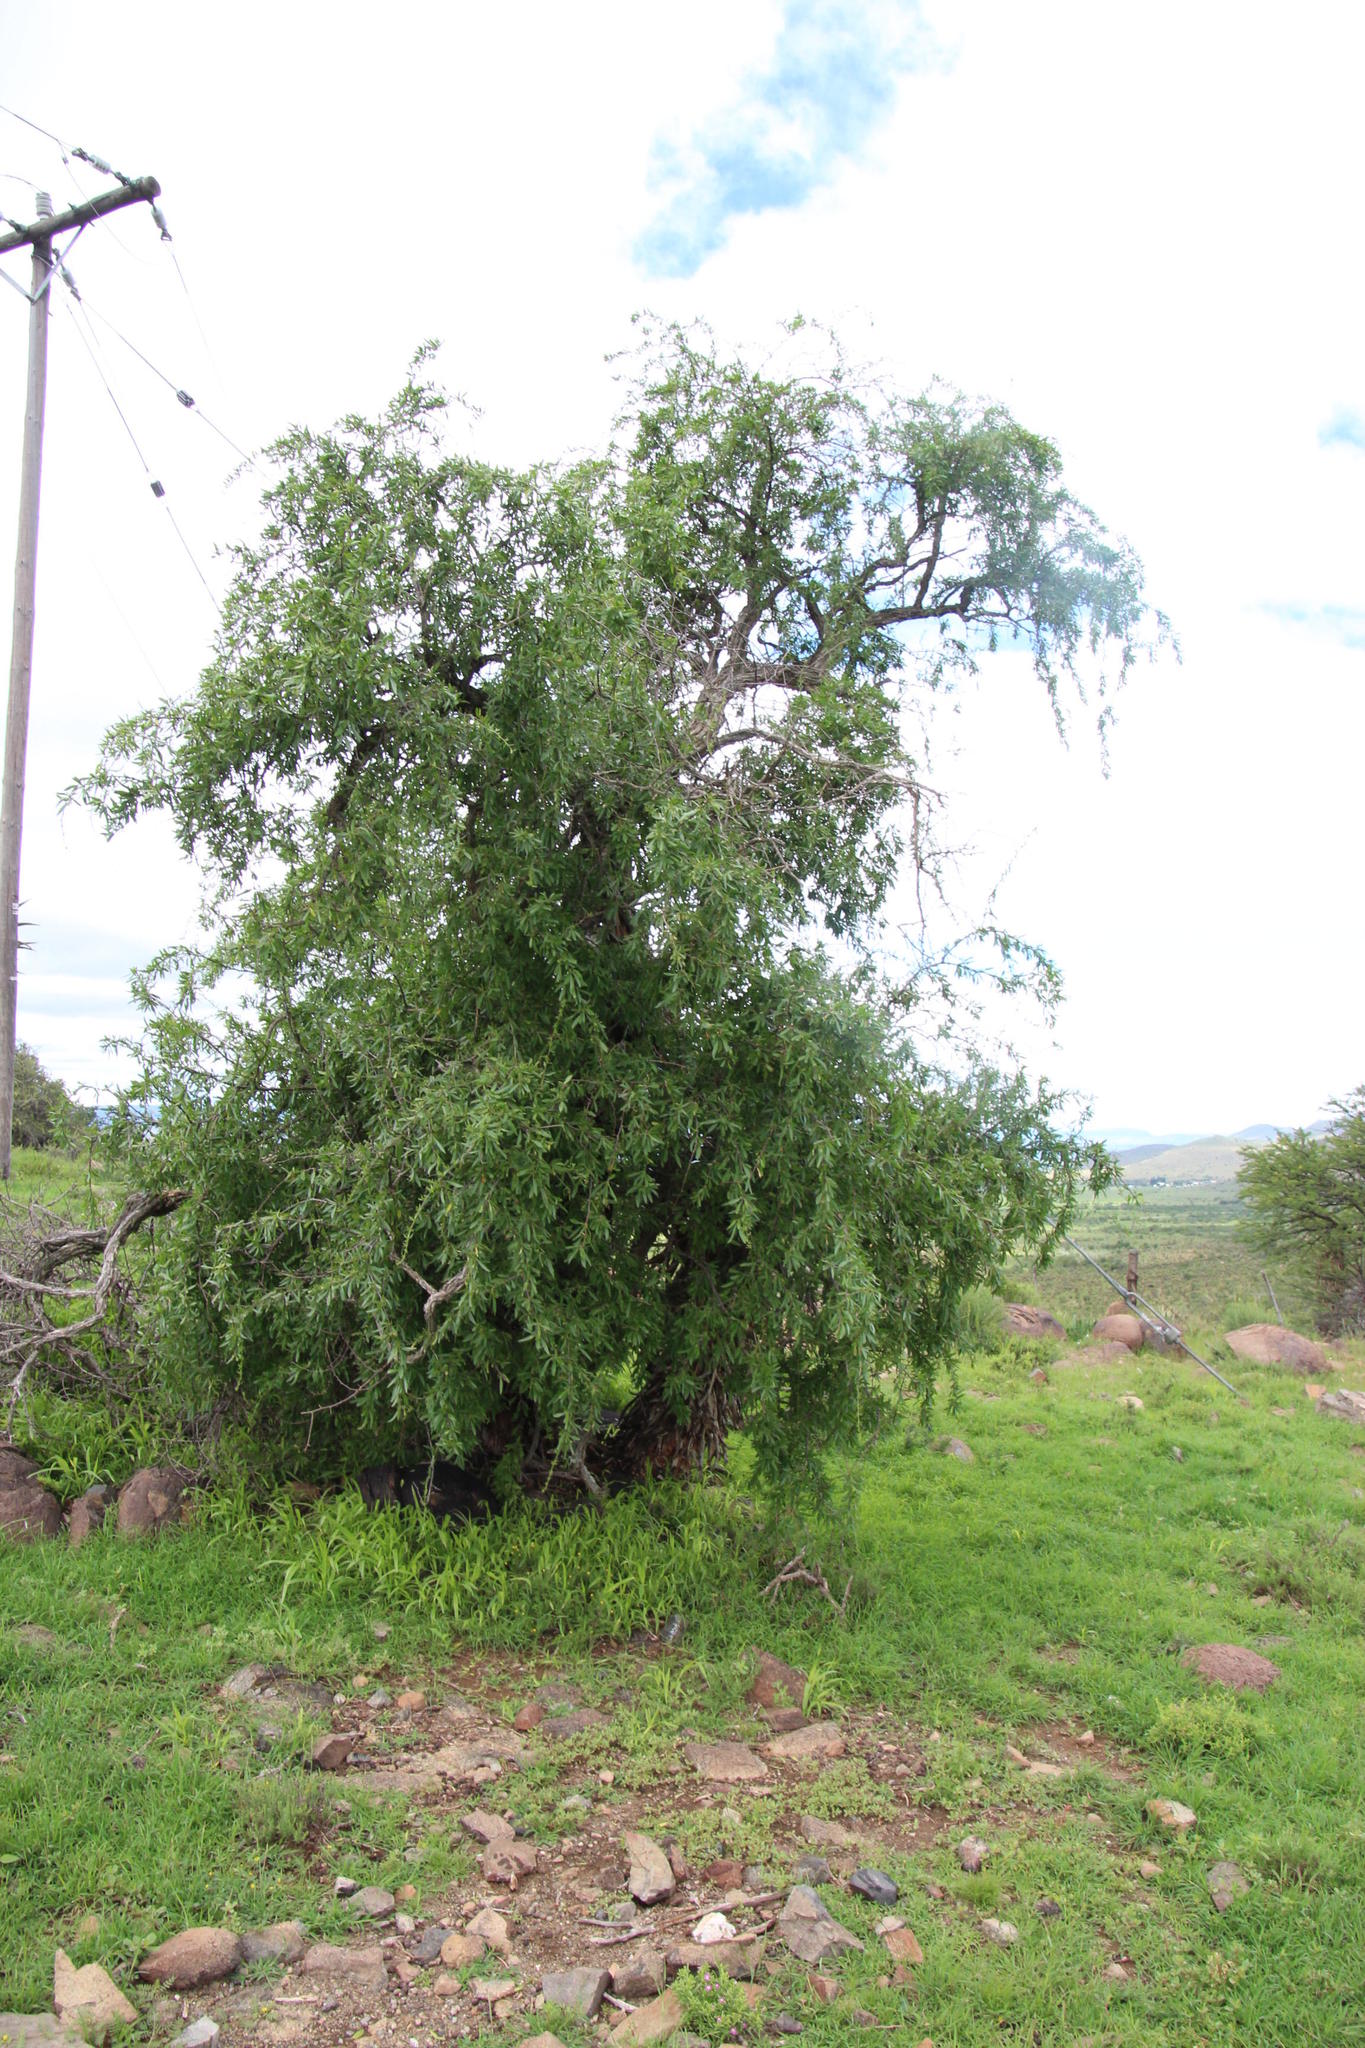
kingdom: Plantae
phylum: Tracheophyta
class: Magnoliopsida
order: Solanales
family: Solanaceae
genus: Lycium
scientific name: Lycium oxycarpum
